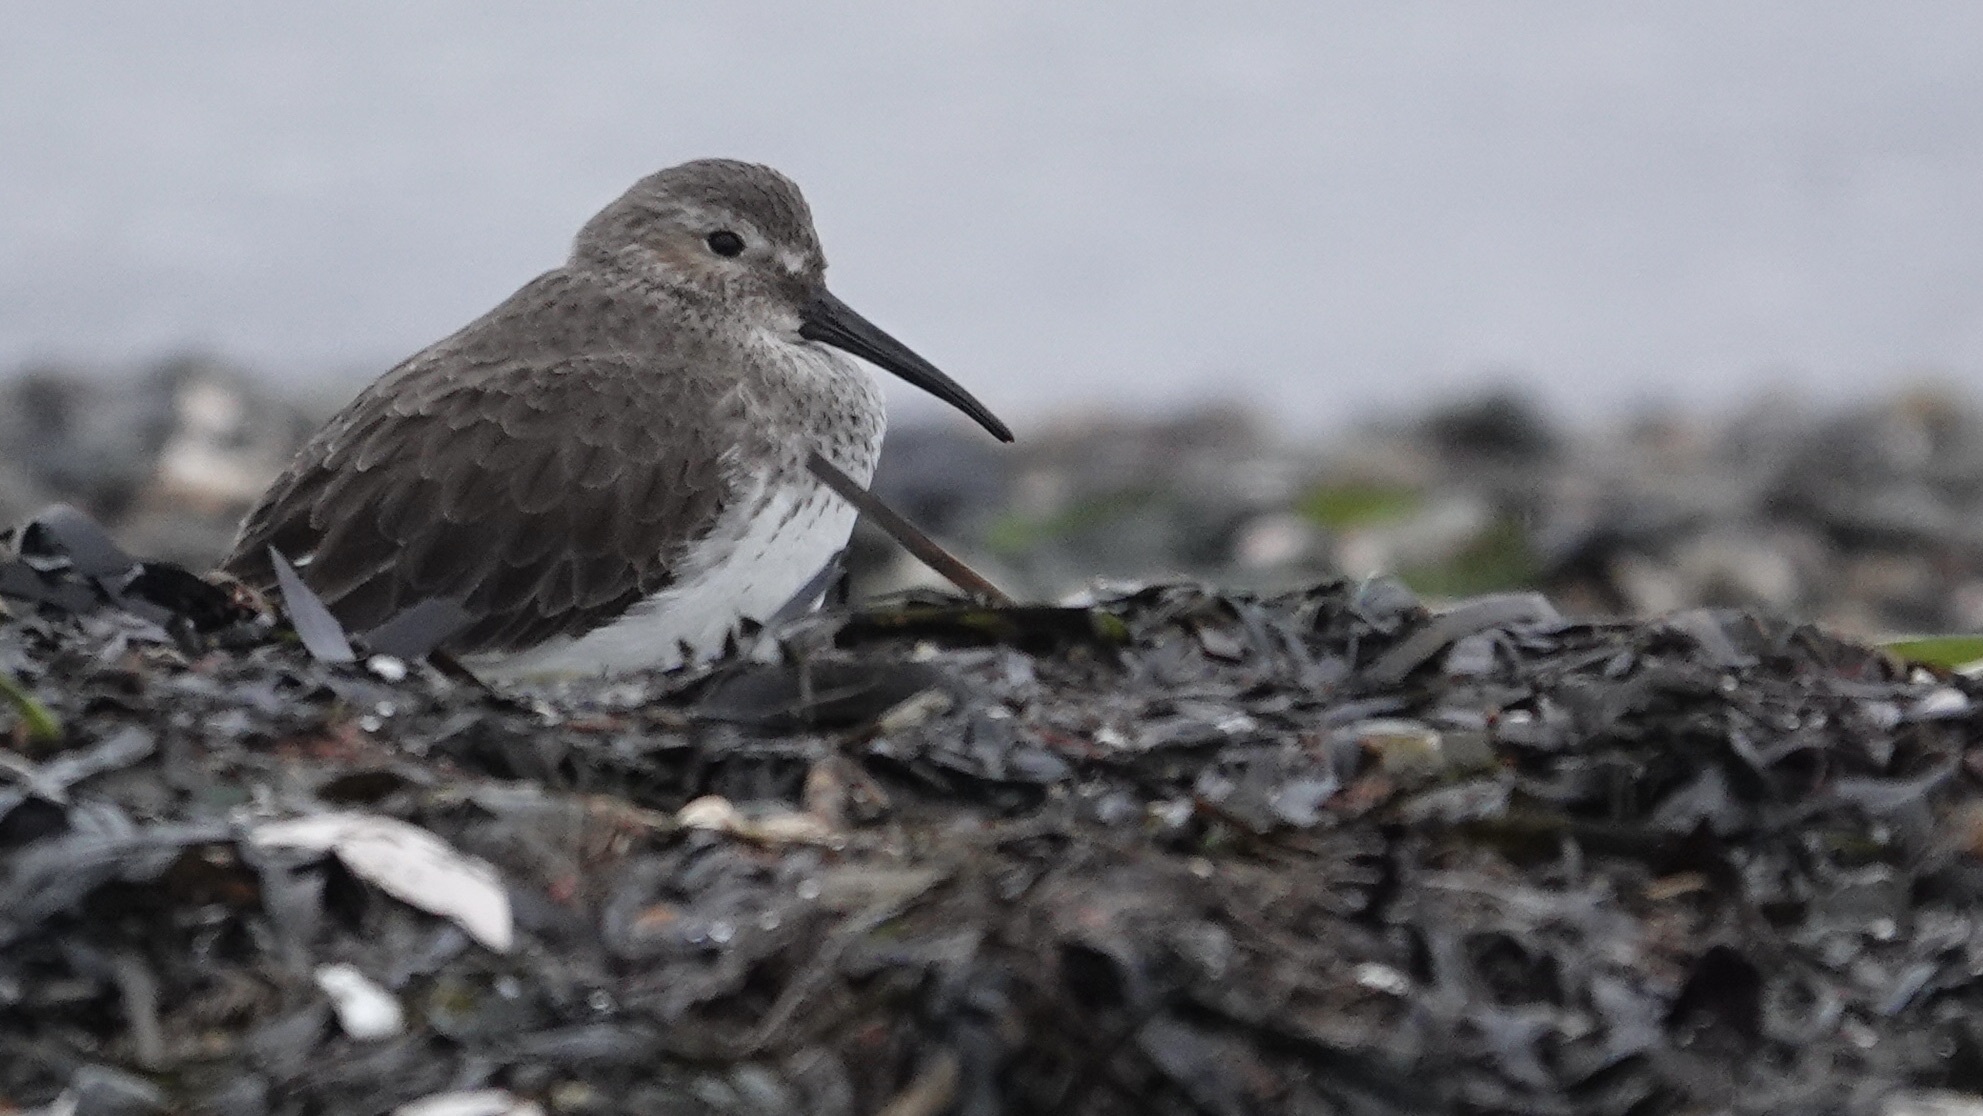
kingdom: Animalia
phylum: Chordata
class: Aves
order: Charadriiformes
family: Scolopacidae
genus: Calidris
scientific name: Calidris alpina
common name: Dunlin
